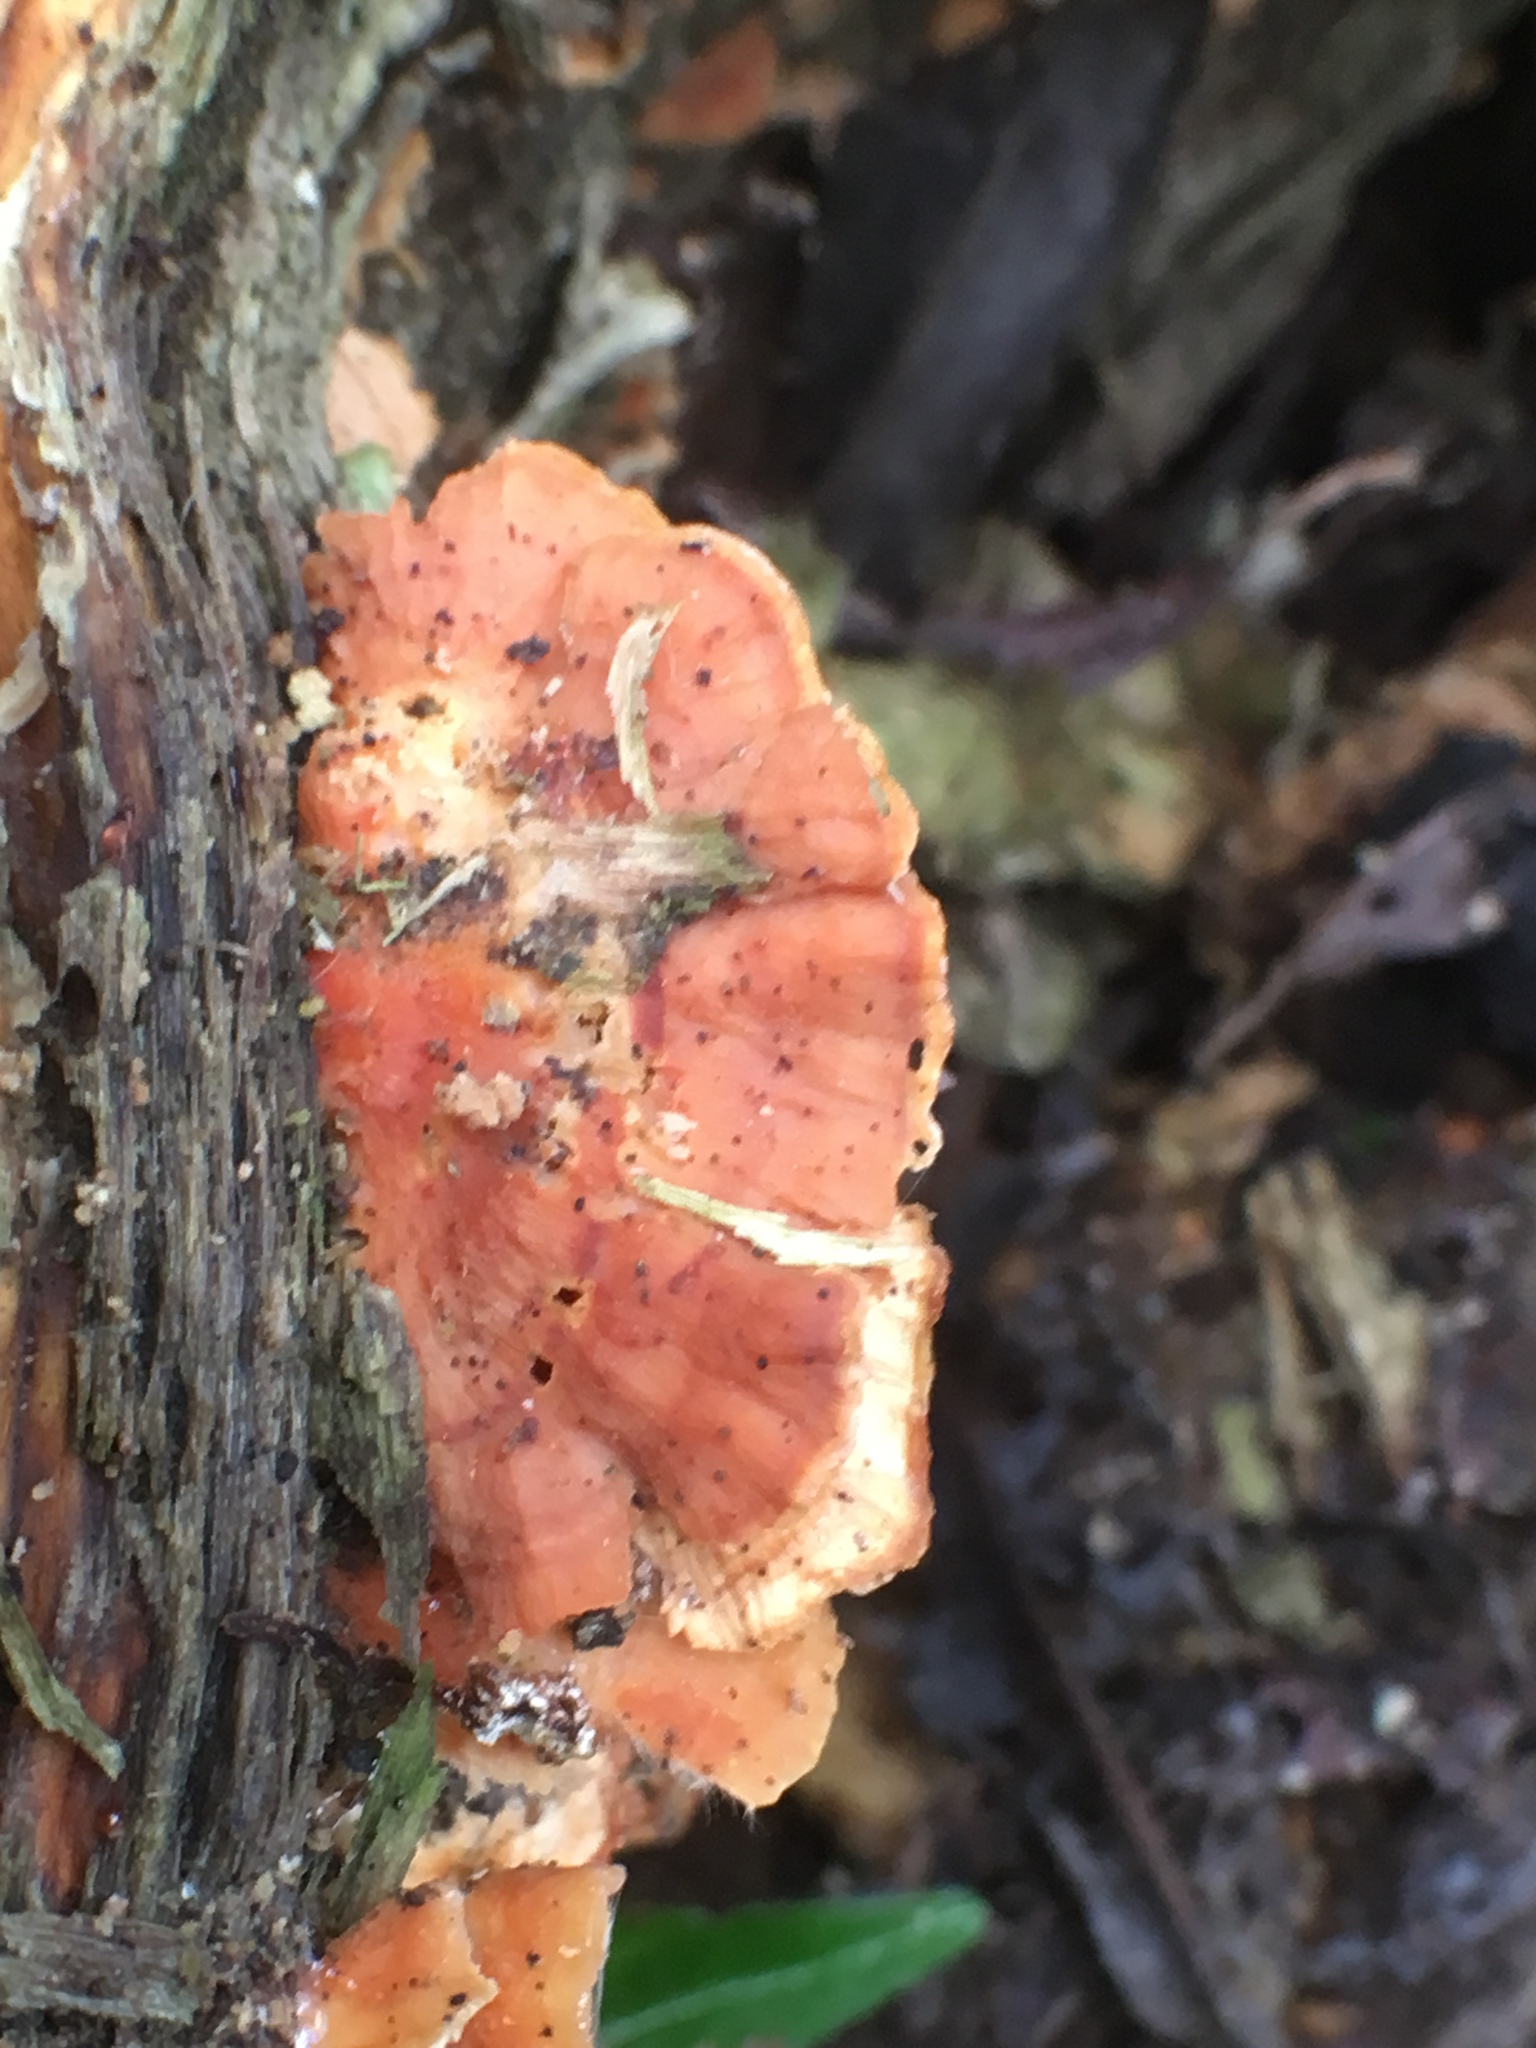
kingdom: Fungi
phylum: Basidiomycota
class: Agaricomycetes
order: Polyporales
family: Cerrenaceae
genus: Cerrena
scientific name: Cerrena zonata
